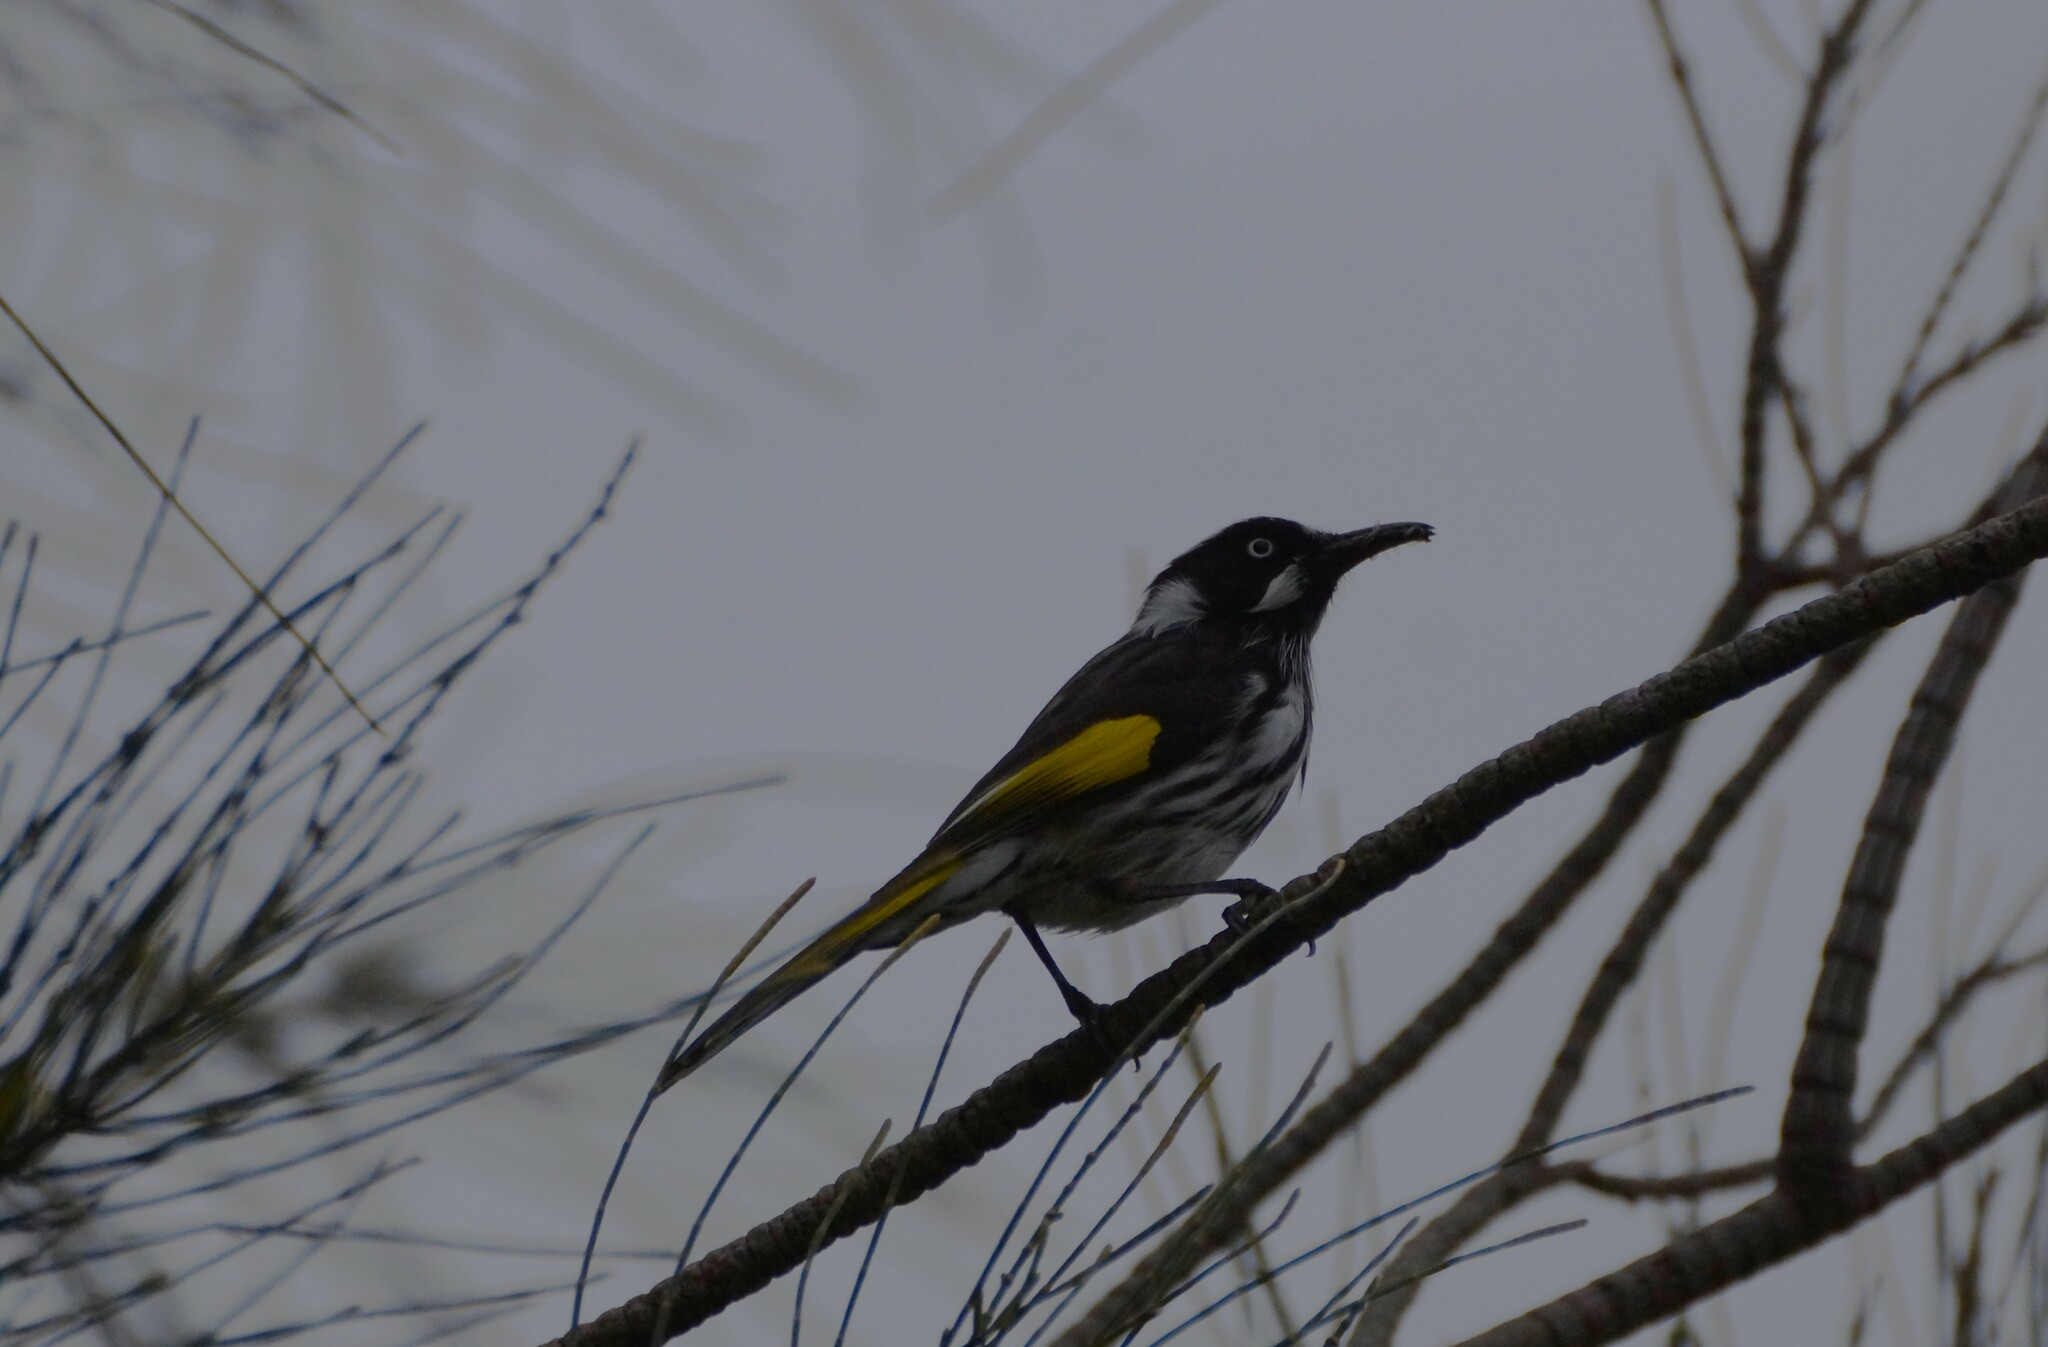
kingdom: Animalia
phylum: Chordata
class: Aves
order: Passeriformes
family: Meliphagidae
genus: Phylidonyris
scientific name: Phylidonyris novaehollandiae
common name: New holland honeyeater
